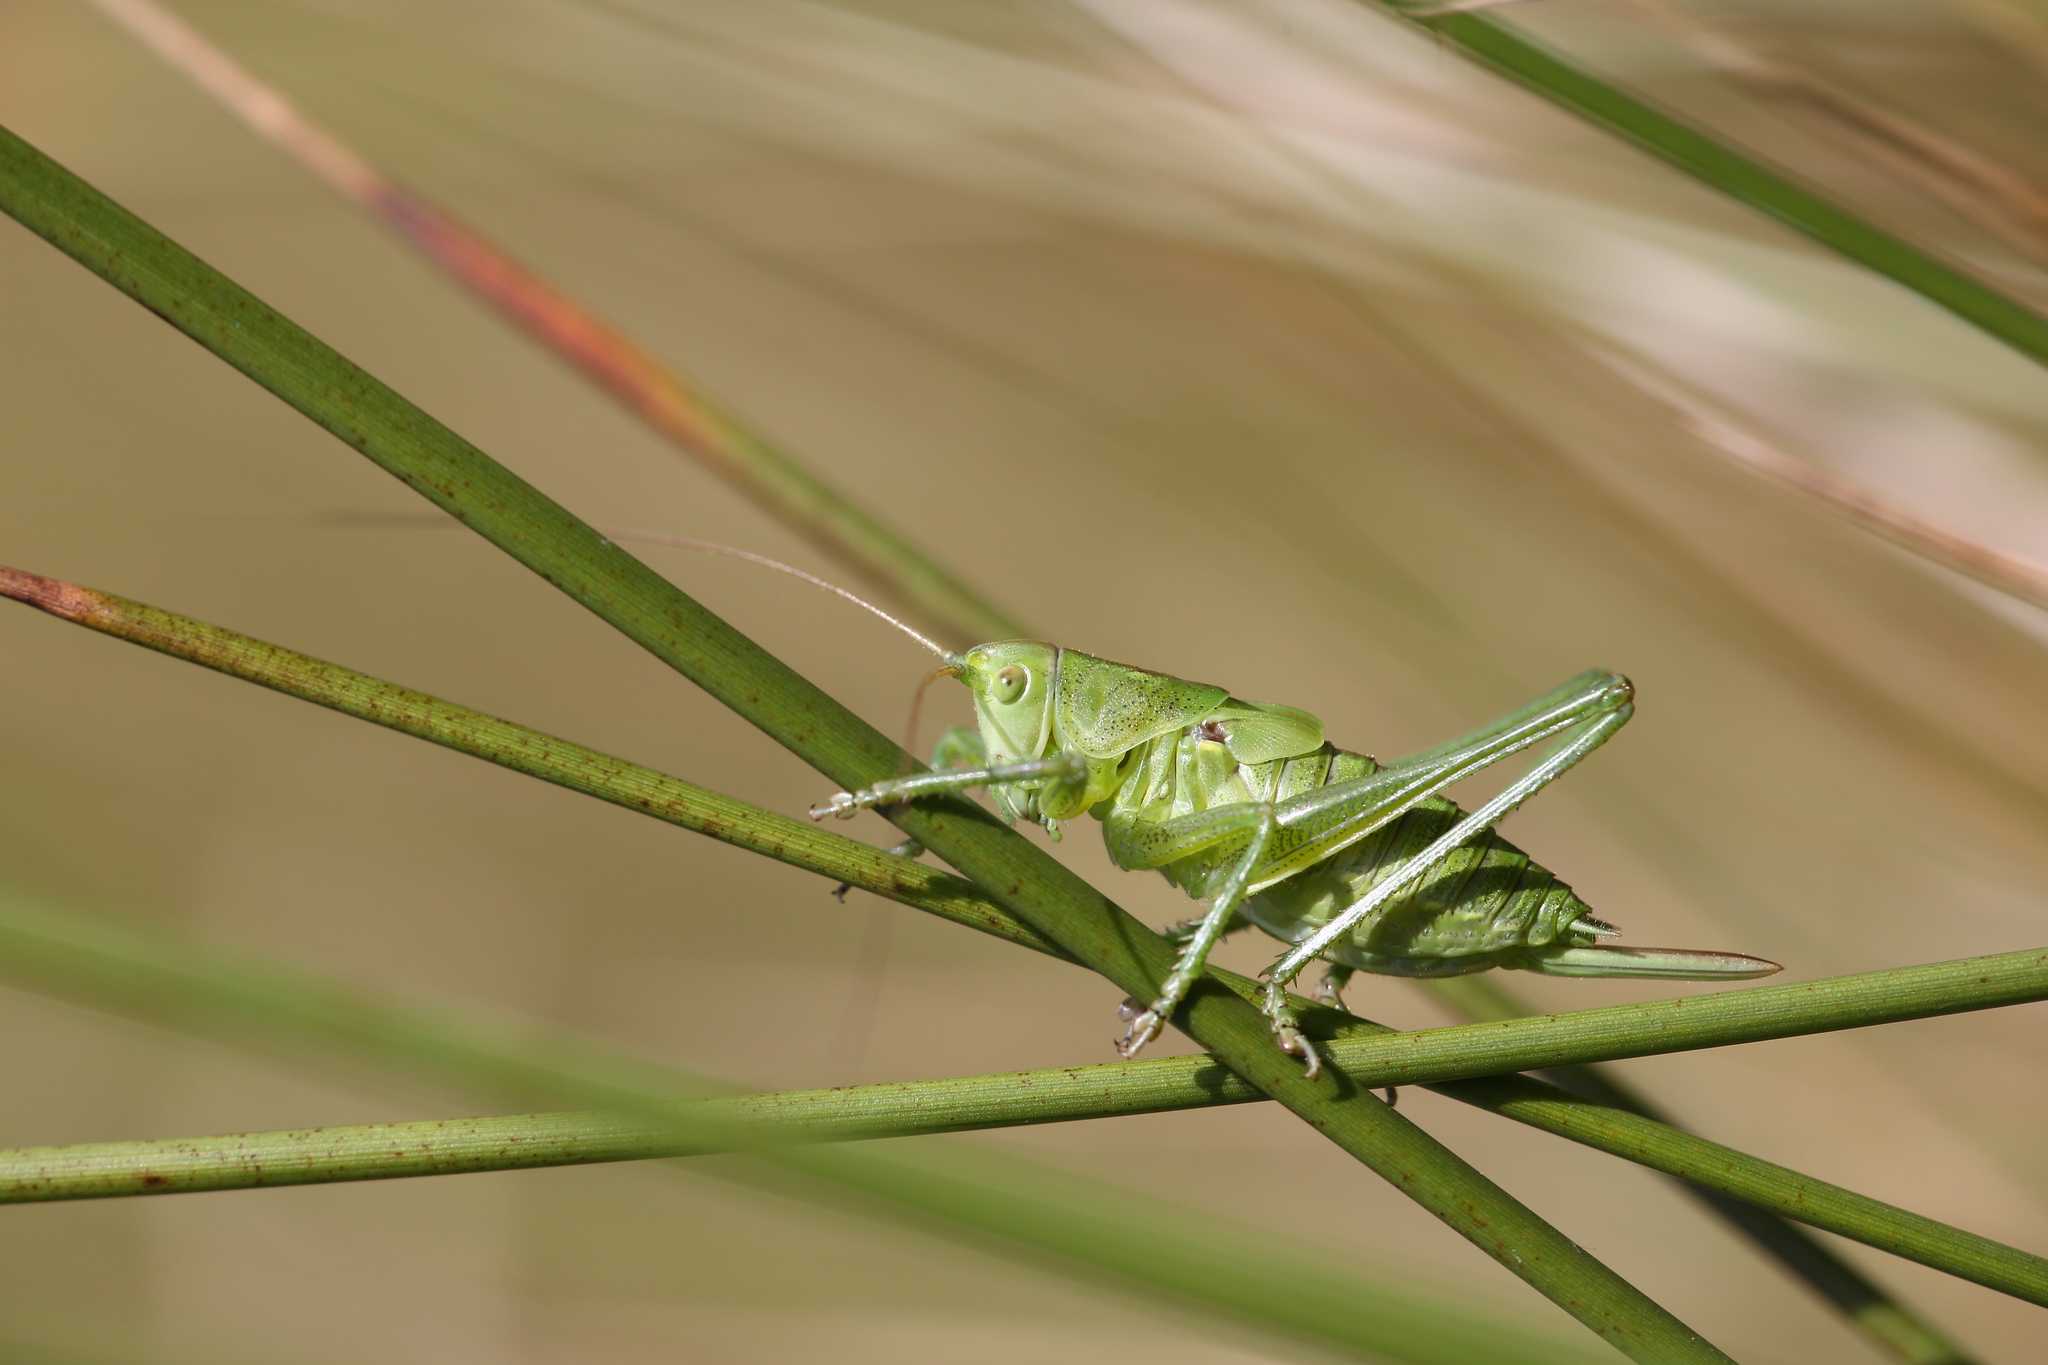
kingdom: Animalia
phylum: Arthropoda
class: Insecta
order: Orthoptera
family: Tettigoniidae
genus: Tettigonia
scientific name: Tettigonia viridissima
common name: Great green bush-cricket
